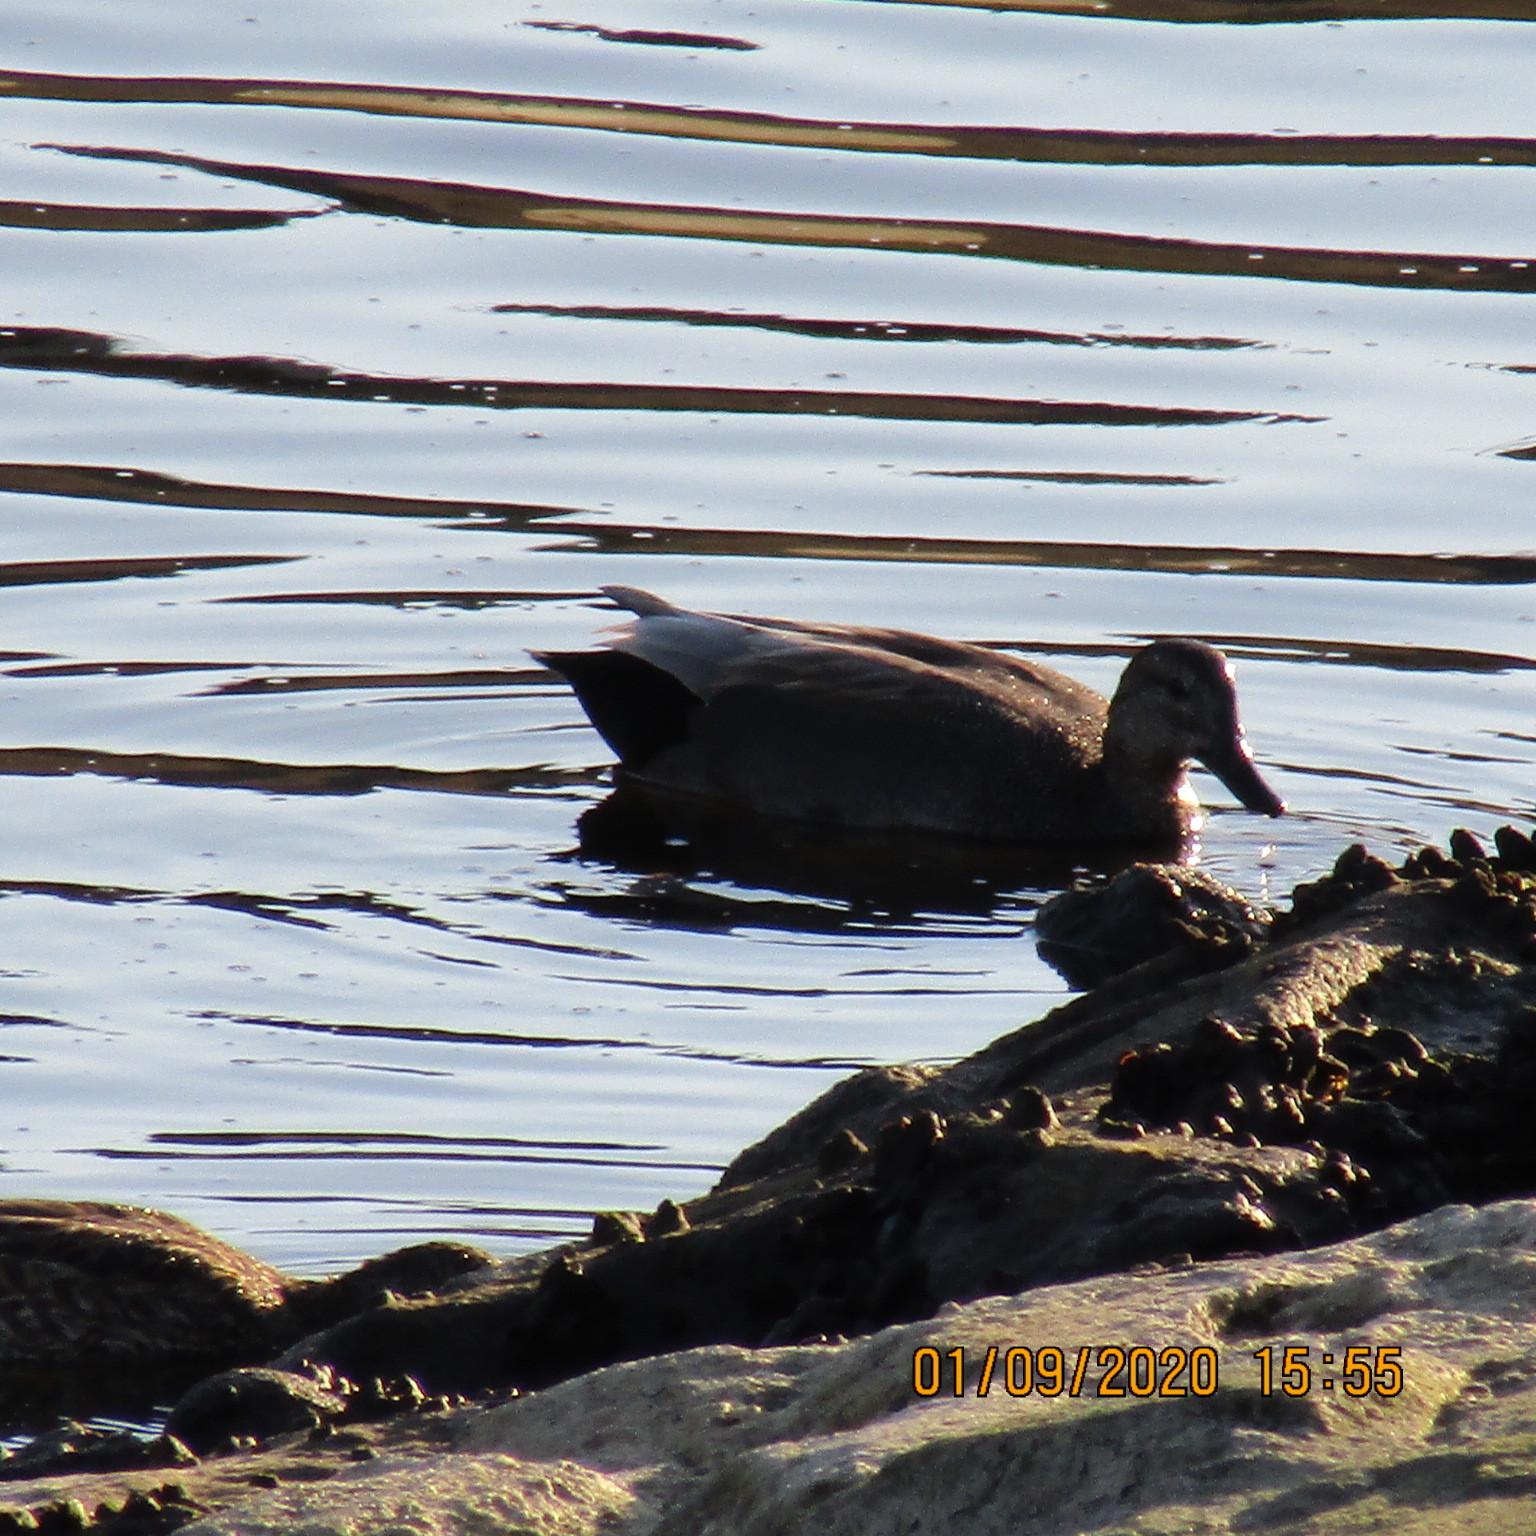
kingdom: Animalia
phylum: Chordata
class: Aves
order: Anseriformes
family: Anatidae
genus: Mareca
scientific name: Mareca strepera
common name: Gadwall
